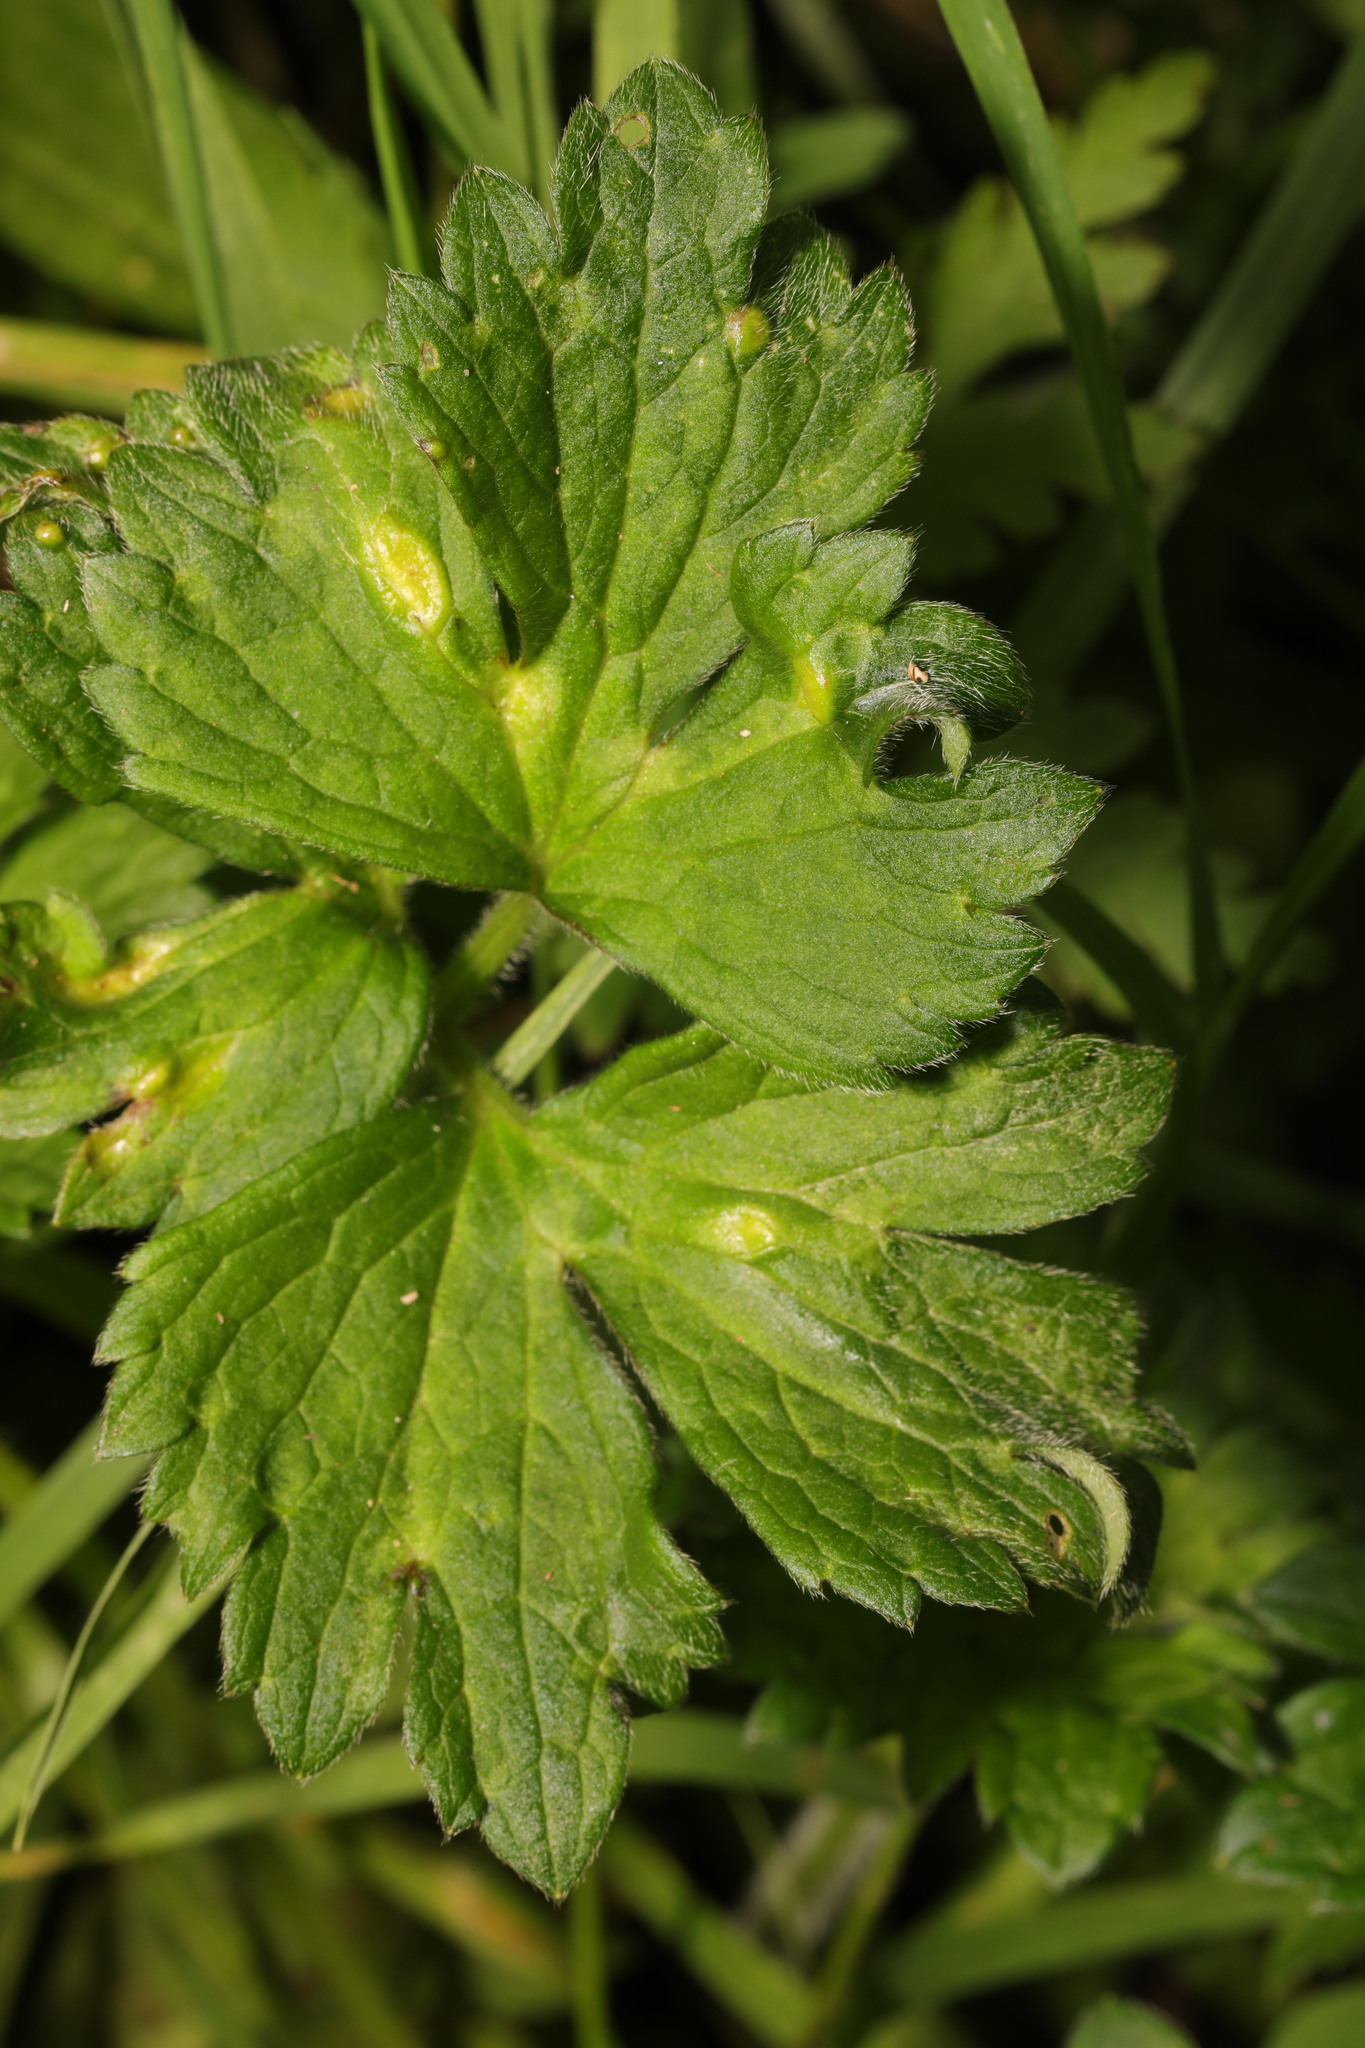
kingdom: Plantae
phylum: Tracheophyta
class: Magnoliopsida
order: Ranunculales
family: Ranunculaceae
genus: Ranunculus
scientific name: Ranunculus repens
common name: Creeping buttercup
